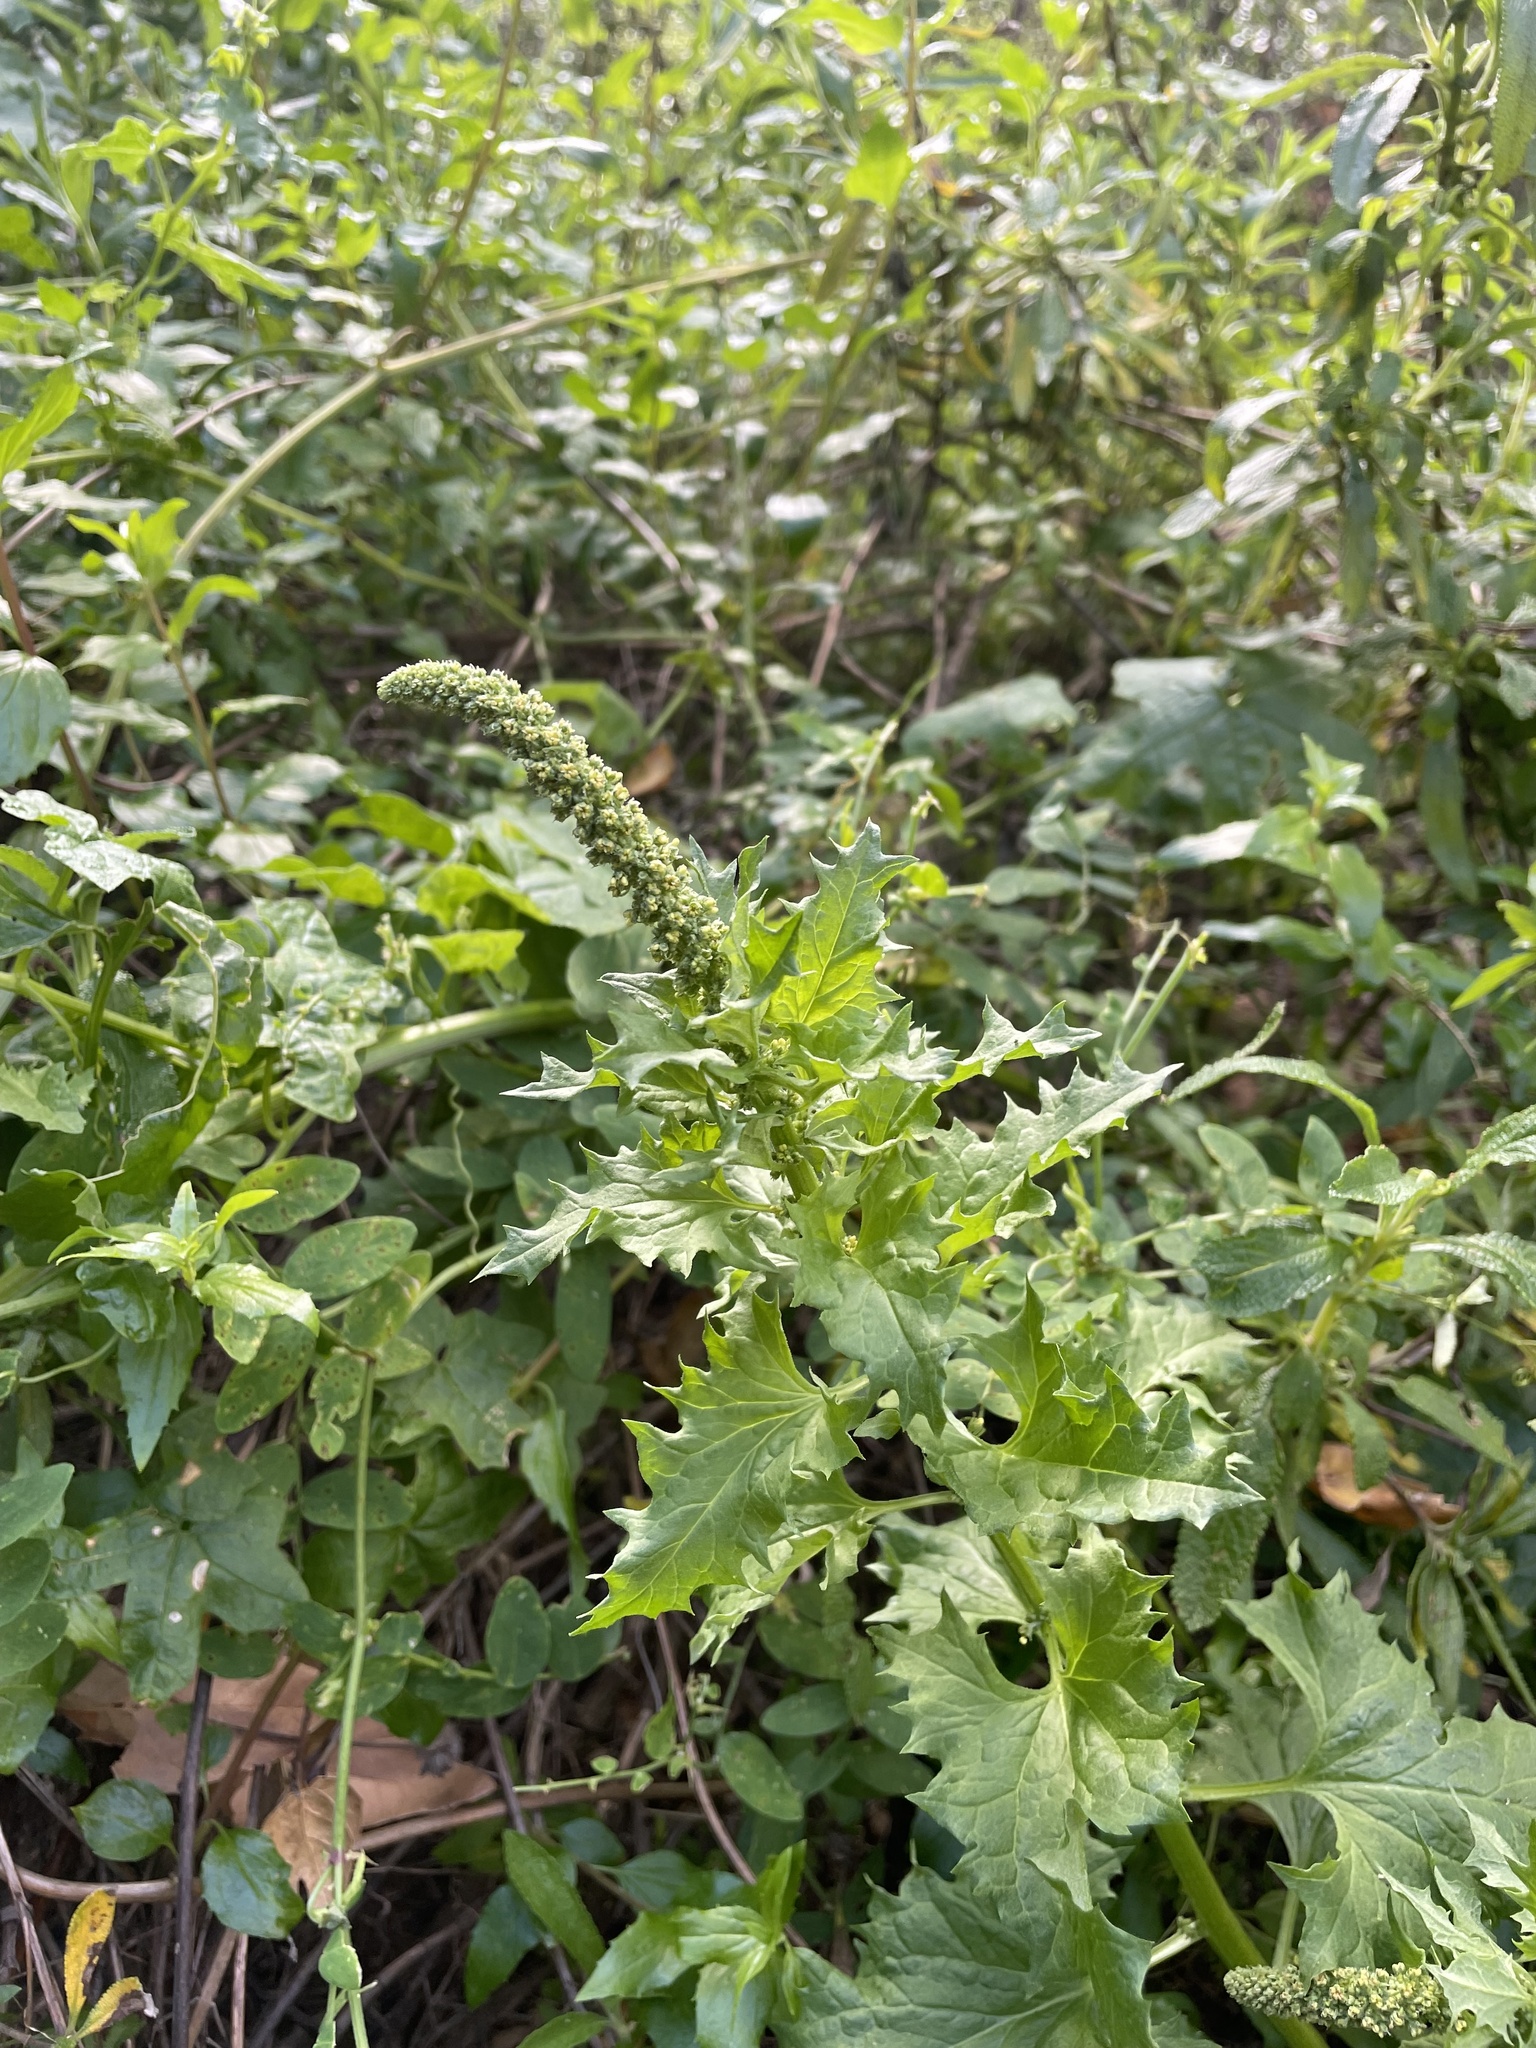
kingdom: Plantae
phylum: Tracheophyta
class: Magnoliopsida
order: Caryophyllales
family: Amaranthaceae
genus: Blitum
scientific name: Blitum californicum
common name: California goosefoot
